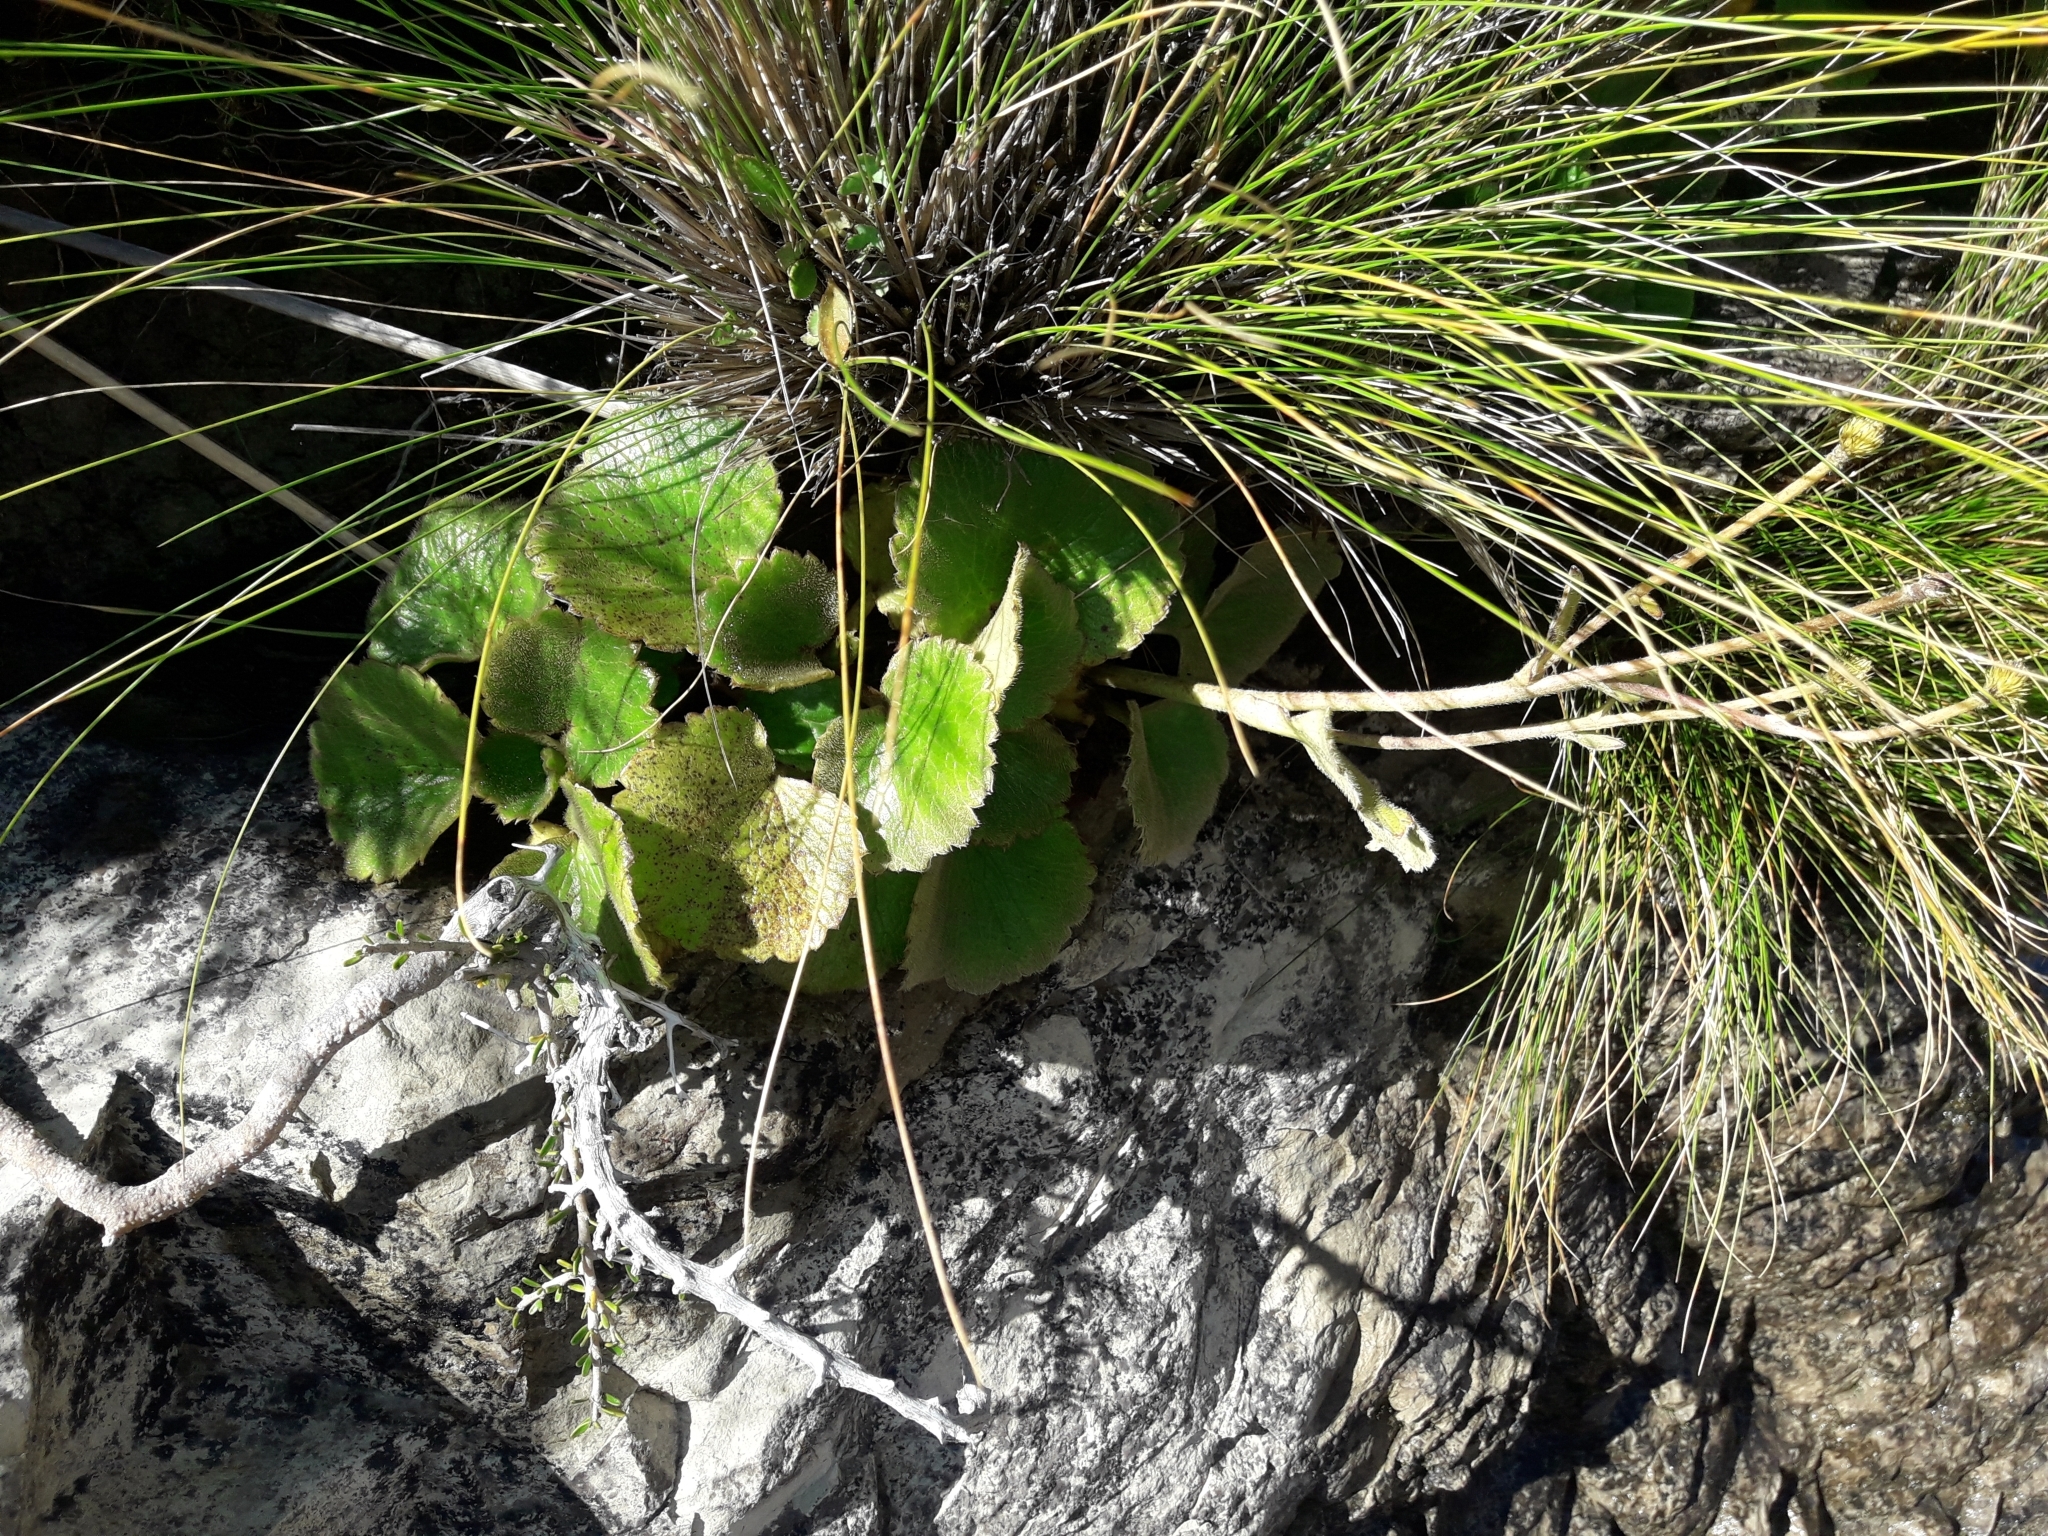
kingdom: Plantae
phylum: Tracheophyta
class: Magnoliopsida
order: Ranunculales
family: Ranunculaceae
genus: Ranunculus
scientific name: Ranunculus insignis
